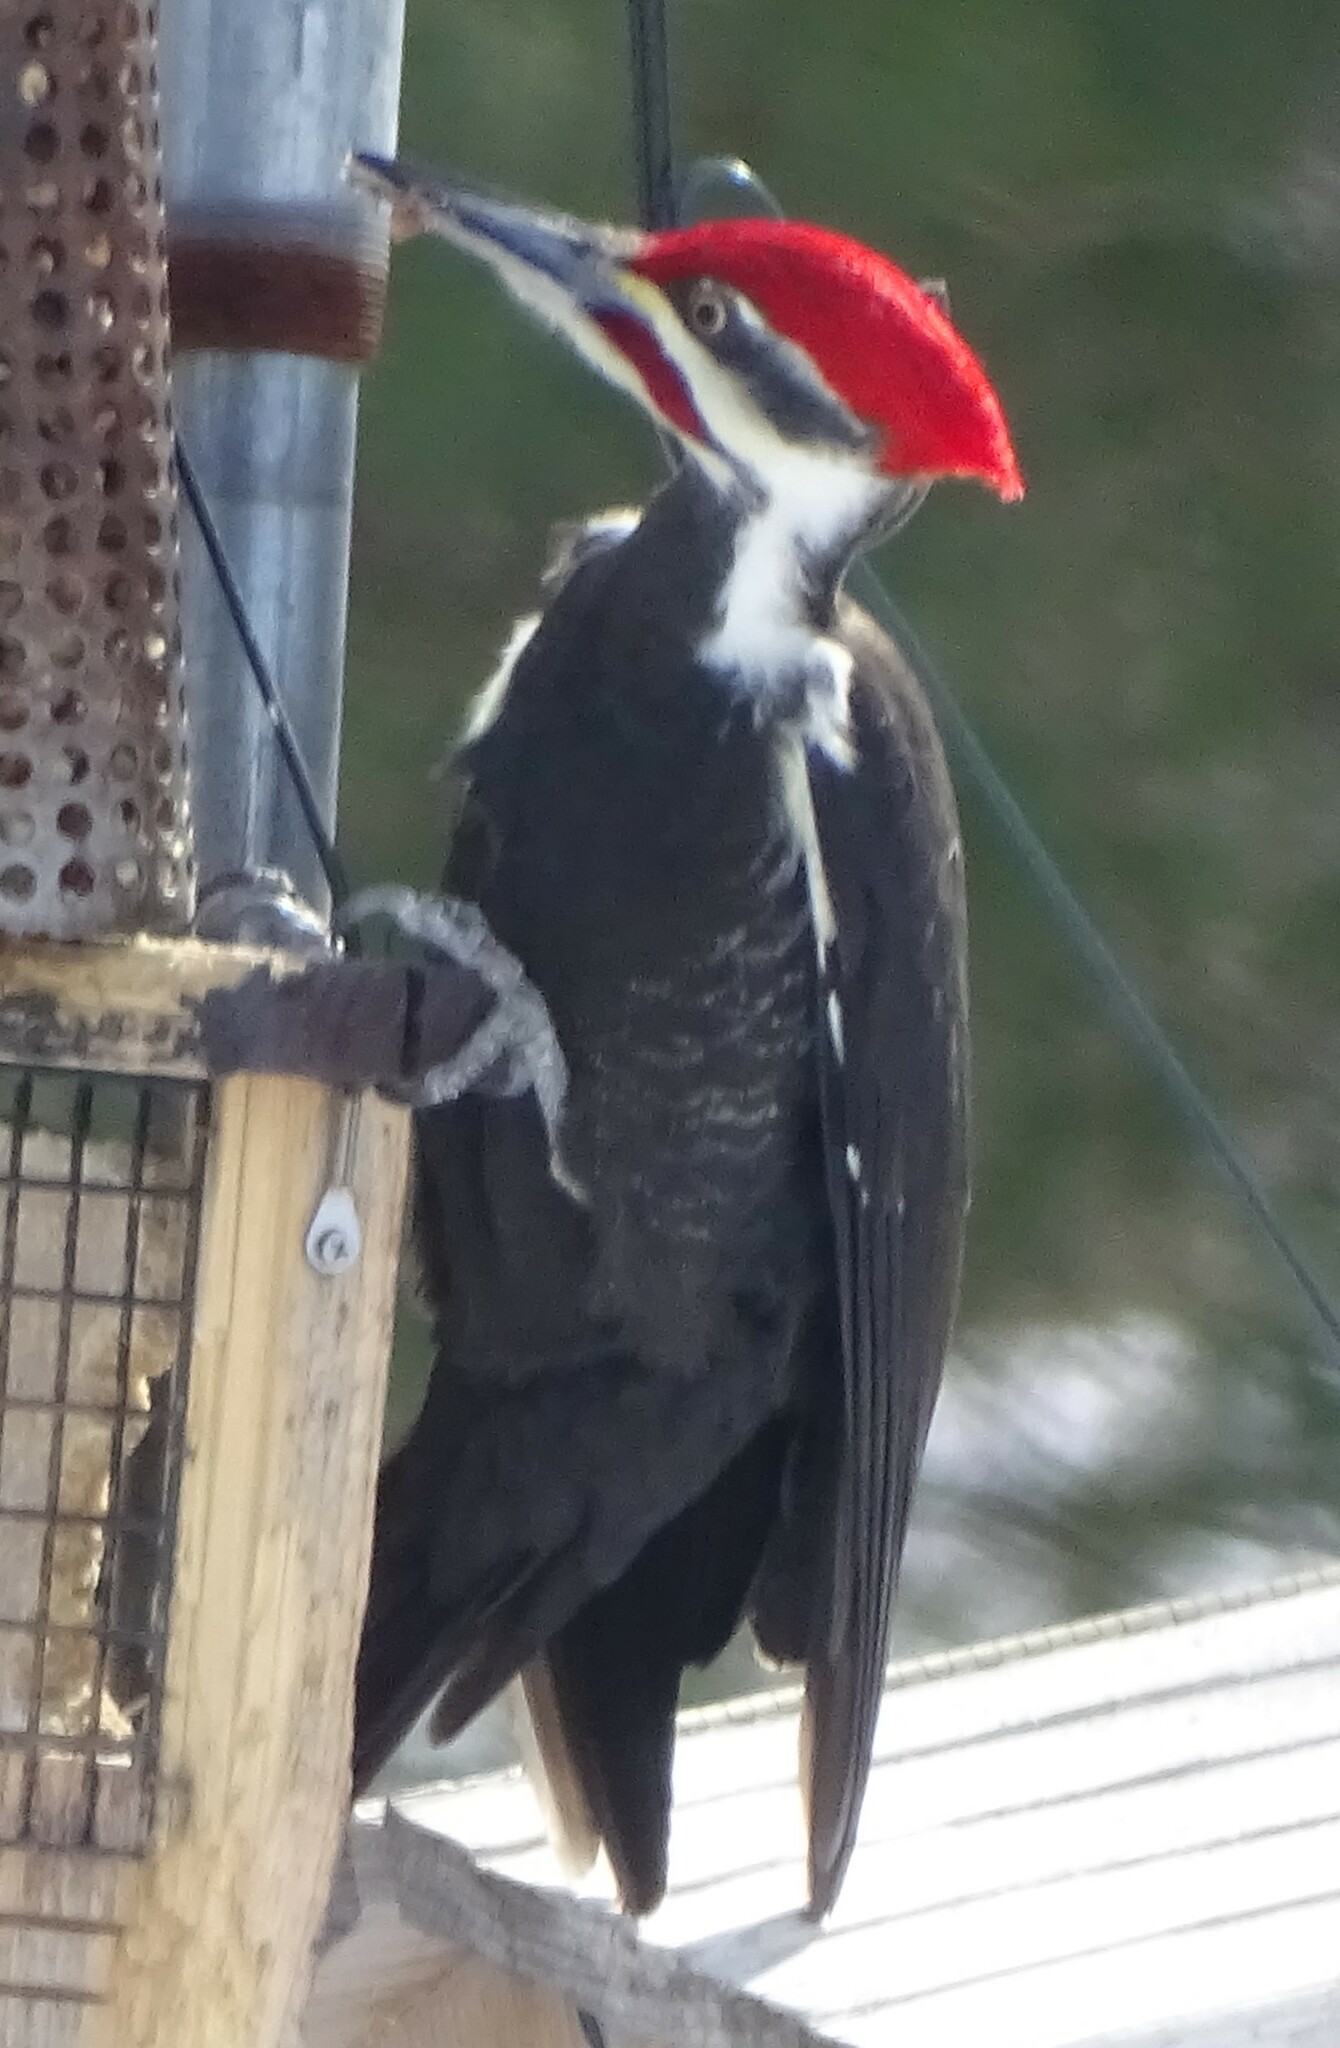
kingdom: Animalia
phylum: Chordata
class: Aves
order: Piciformes
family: Picidae
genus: Dryocopus
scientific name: Dryocopus pileatus
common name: Pileated woodpecker
